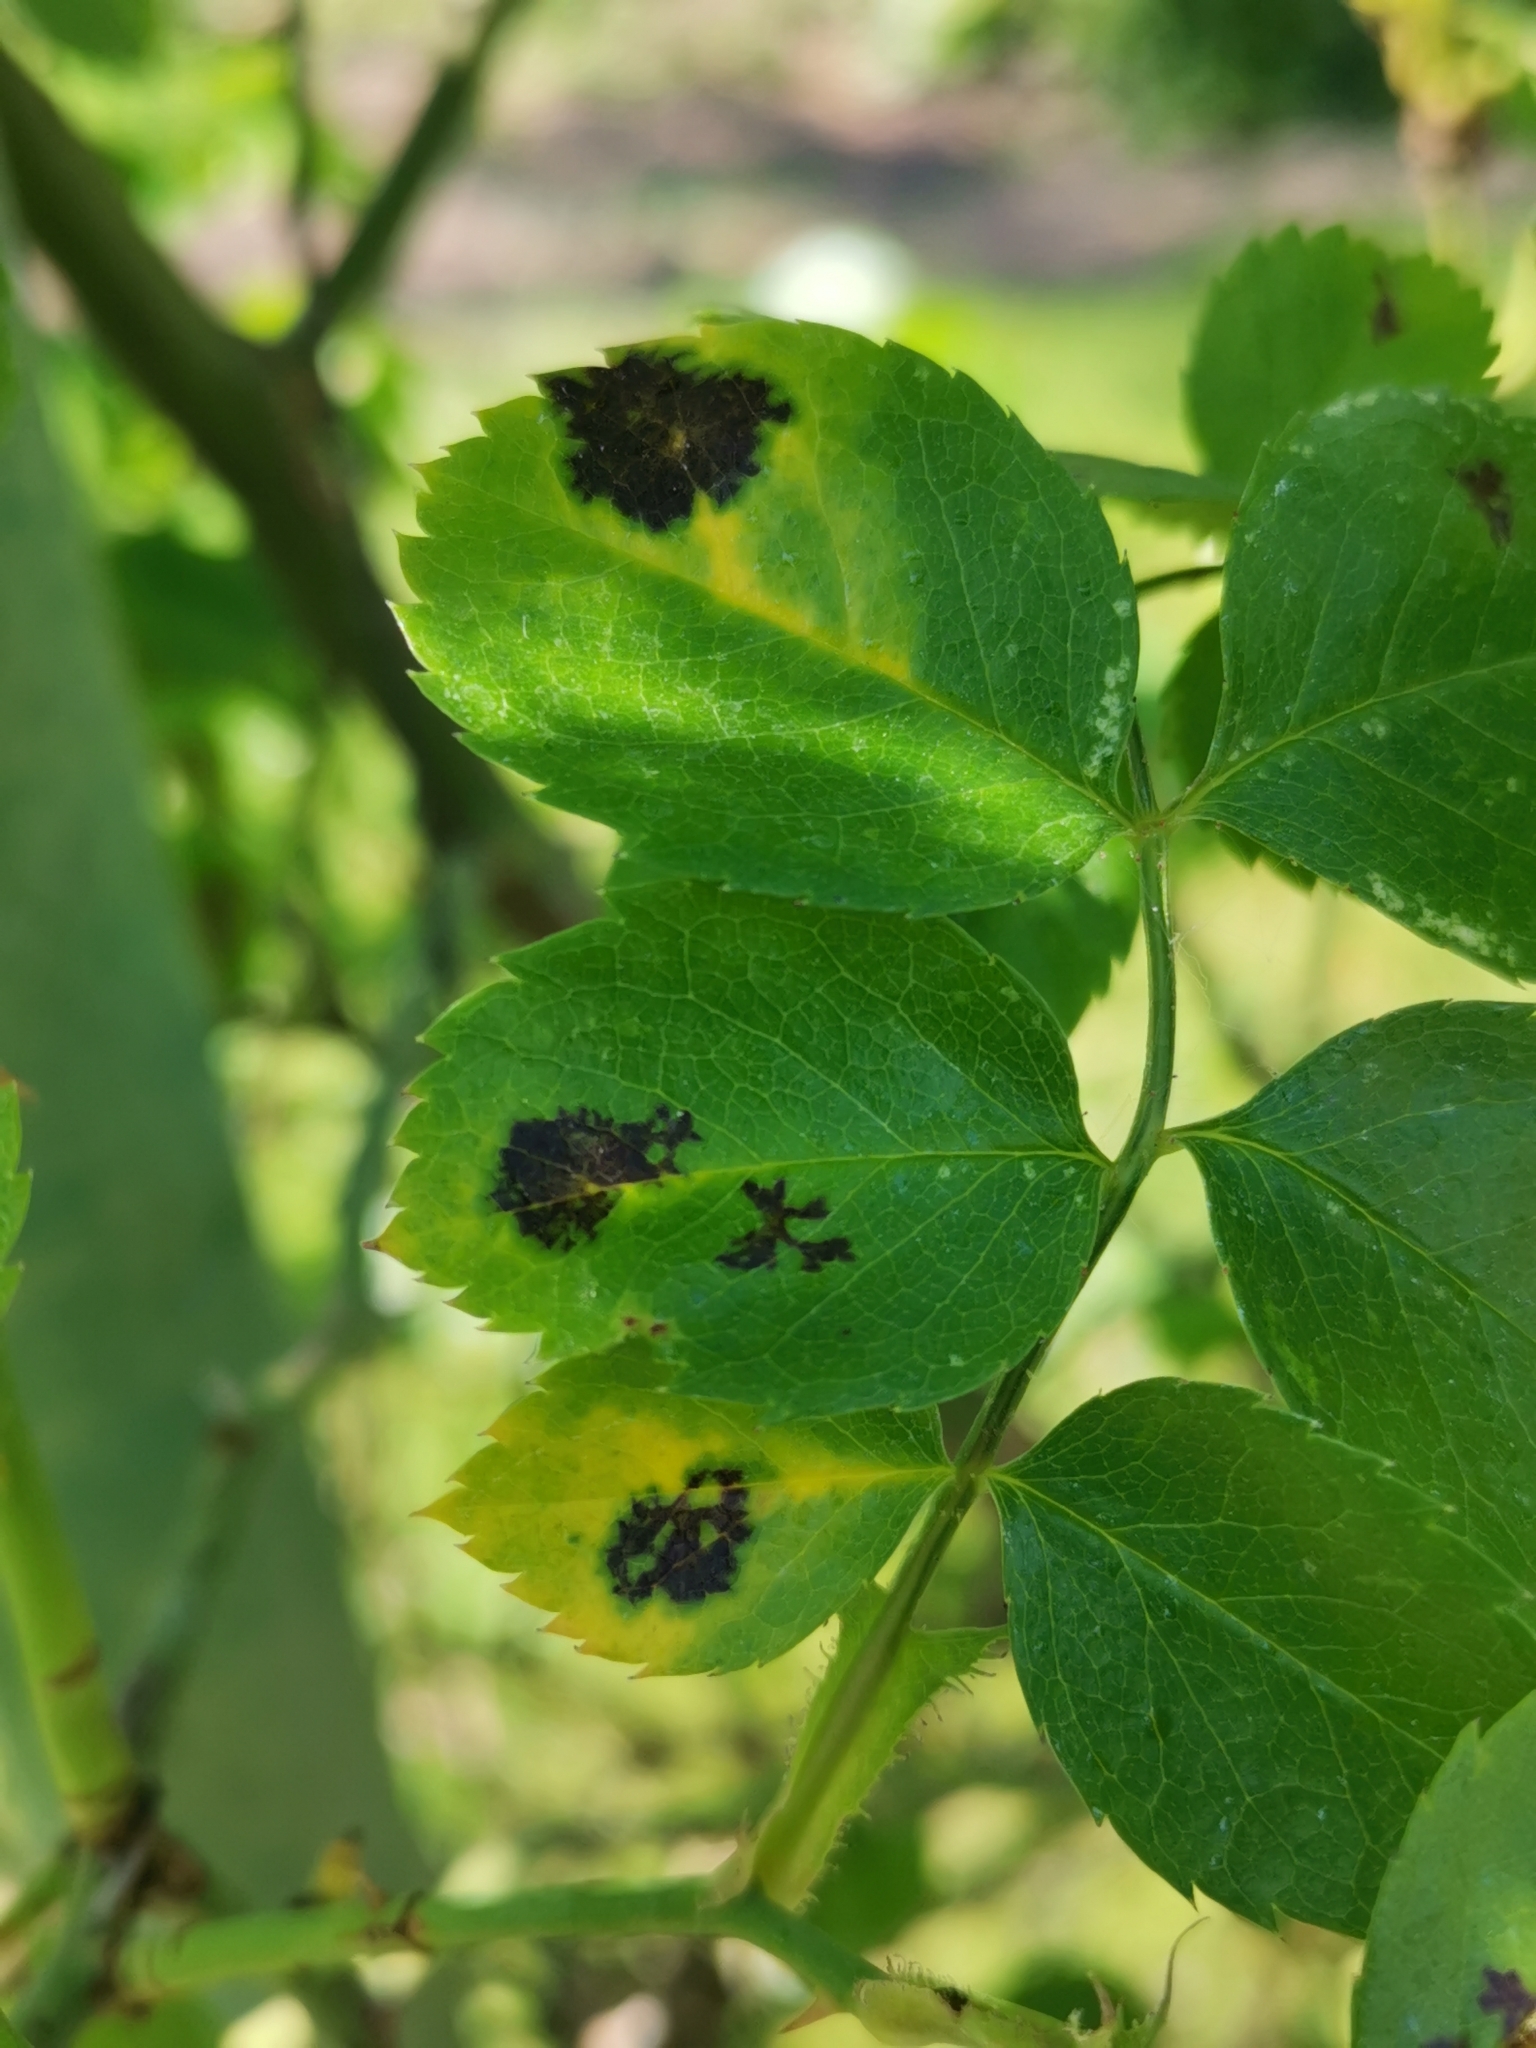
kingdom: Fungi
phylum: Ascomycota
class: Leotiomycetes
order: Helotiales
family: Drepanopezizaceae
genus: Diplocarpon
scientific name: Diplocarpon rosae
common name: Rose black-spot
